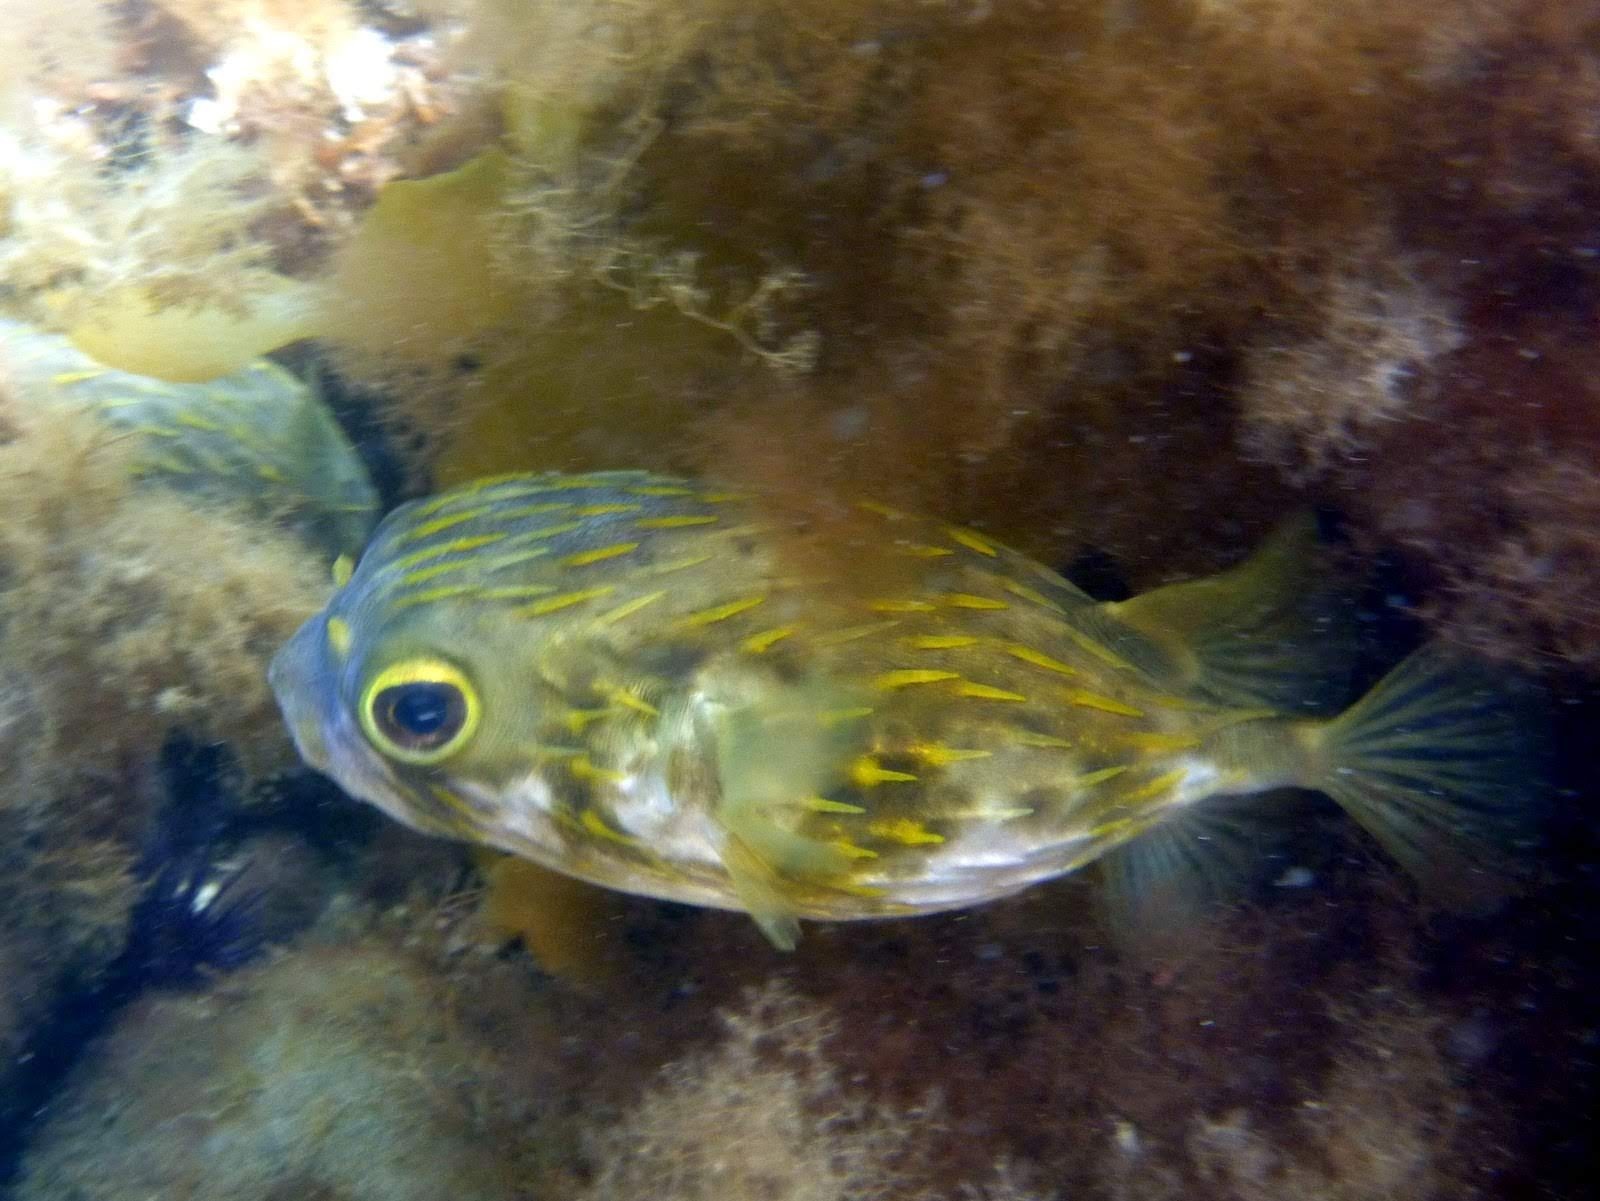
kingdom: Animalia
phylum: Chordata
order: Tetraodontiformes
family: Diodontidae
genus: Diodon
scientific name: Diodon nicthemerus
